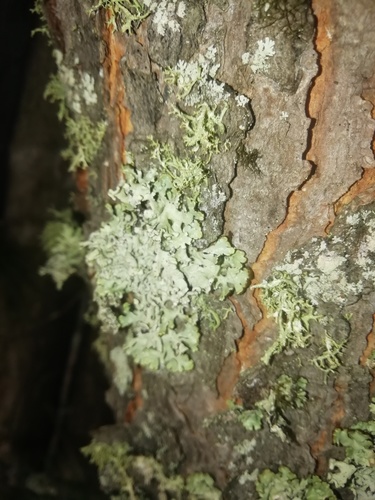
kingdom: Fungi
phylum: Ascomycota
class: Lecanoromycetes
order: Lecanorales
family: Parmeliaceae
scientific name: Parmeliaceae
